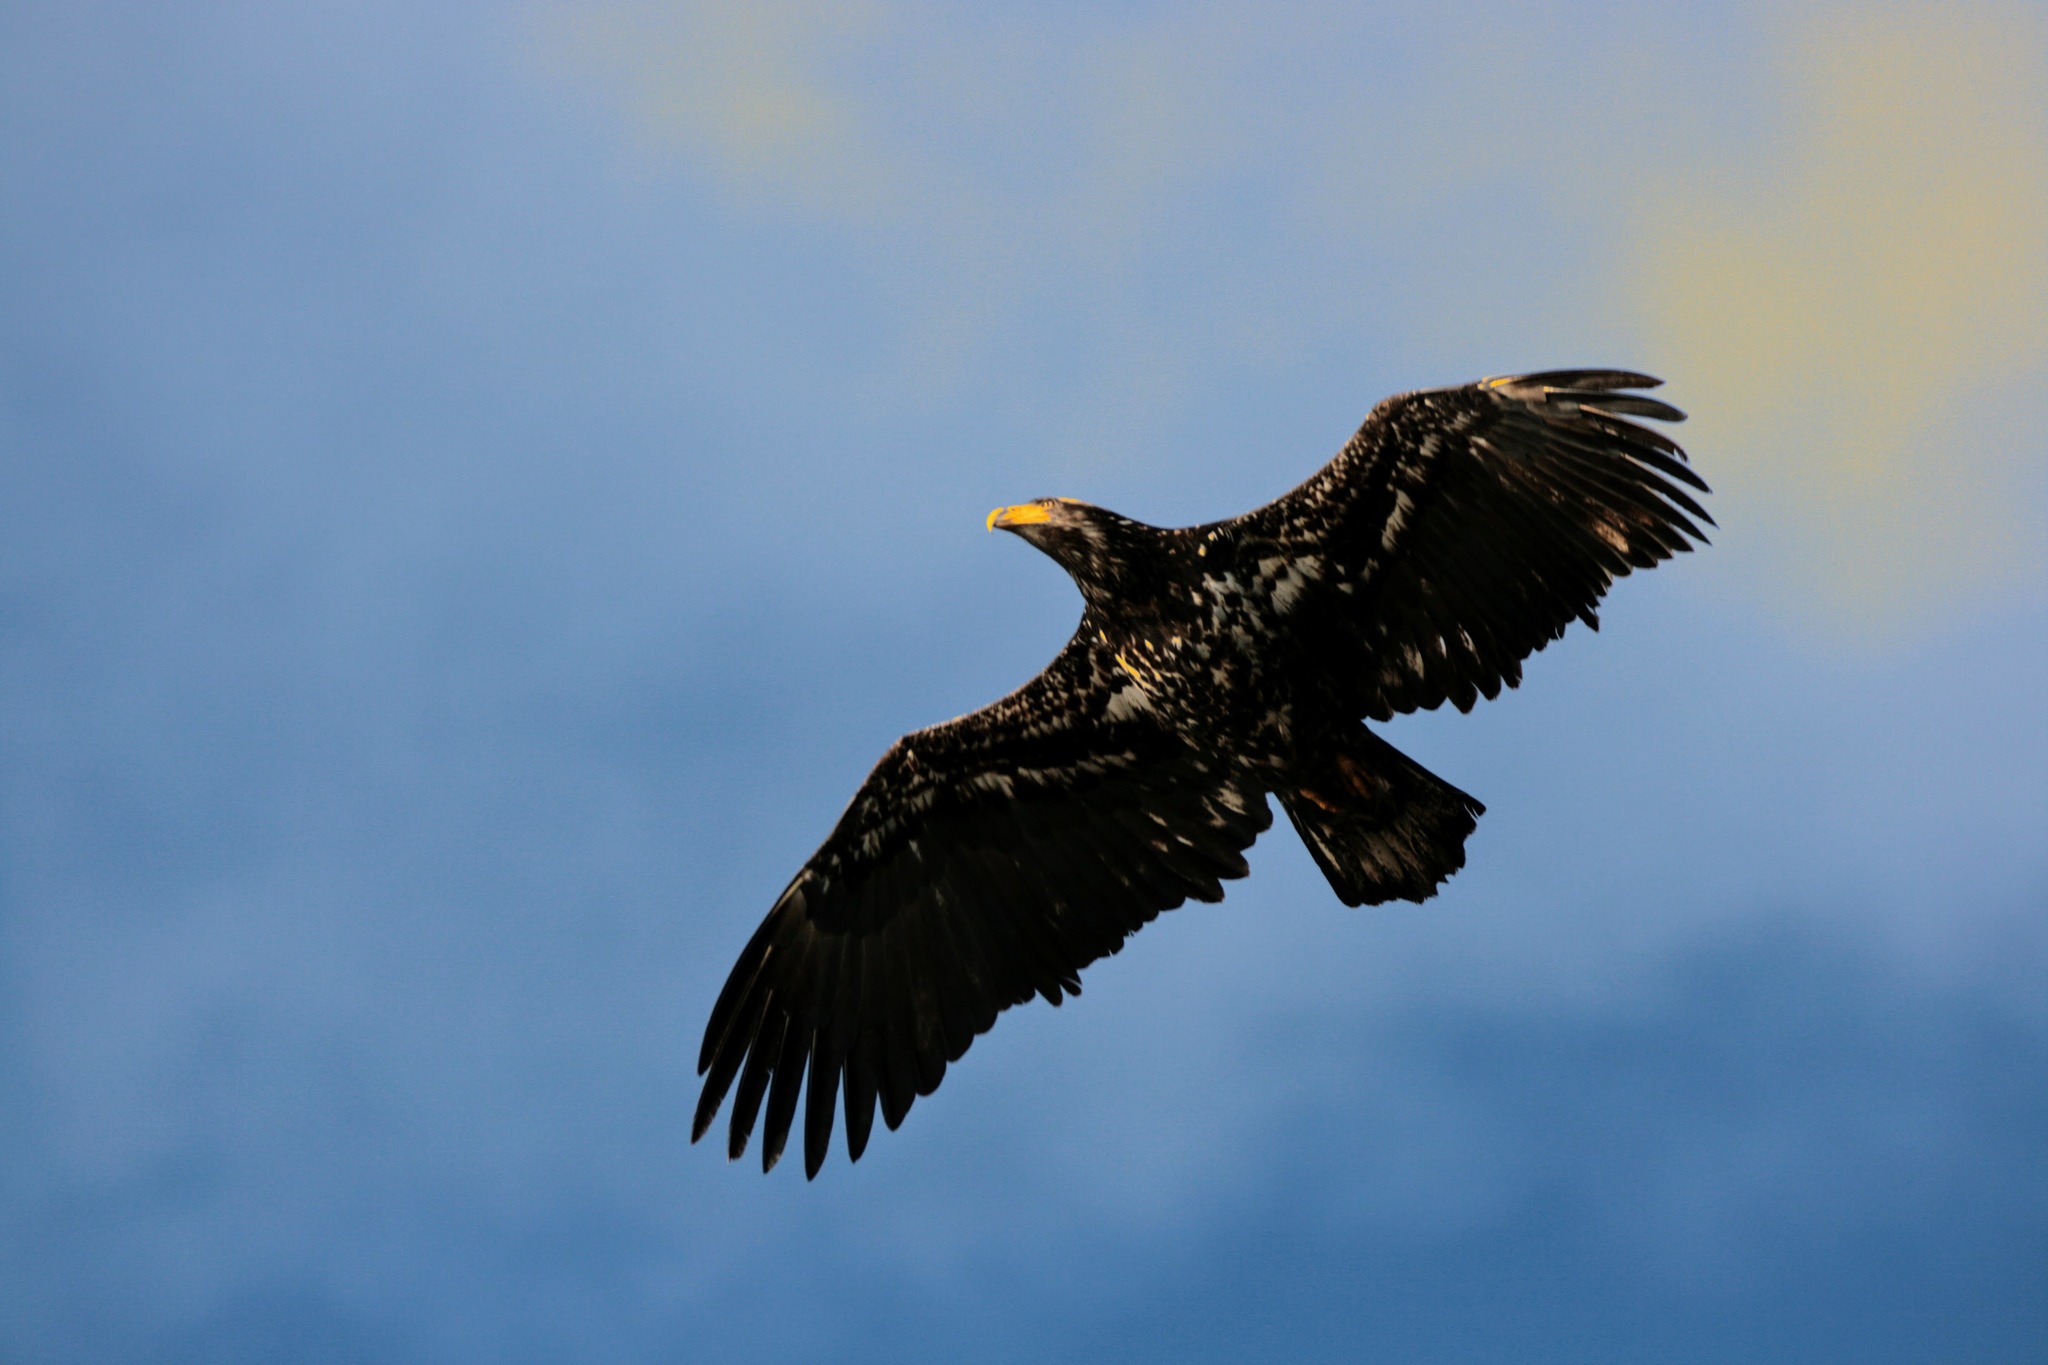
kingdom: Animalia
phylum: Chordata
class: Aves
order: Accipitriformes
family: Accipitridae
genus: Haliaeetus
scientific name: Haliaeetus leucocephalus
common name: Bald eagle
